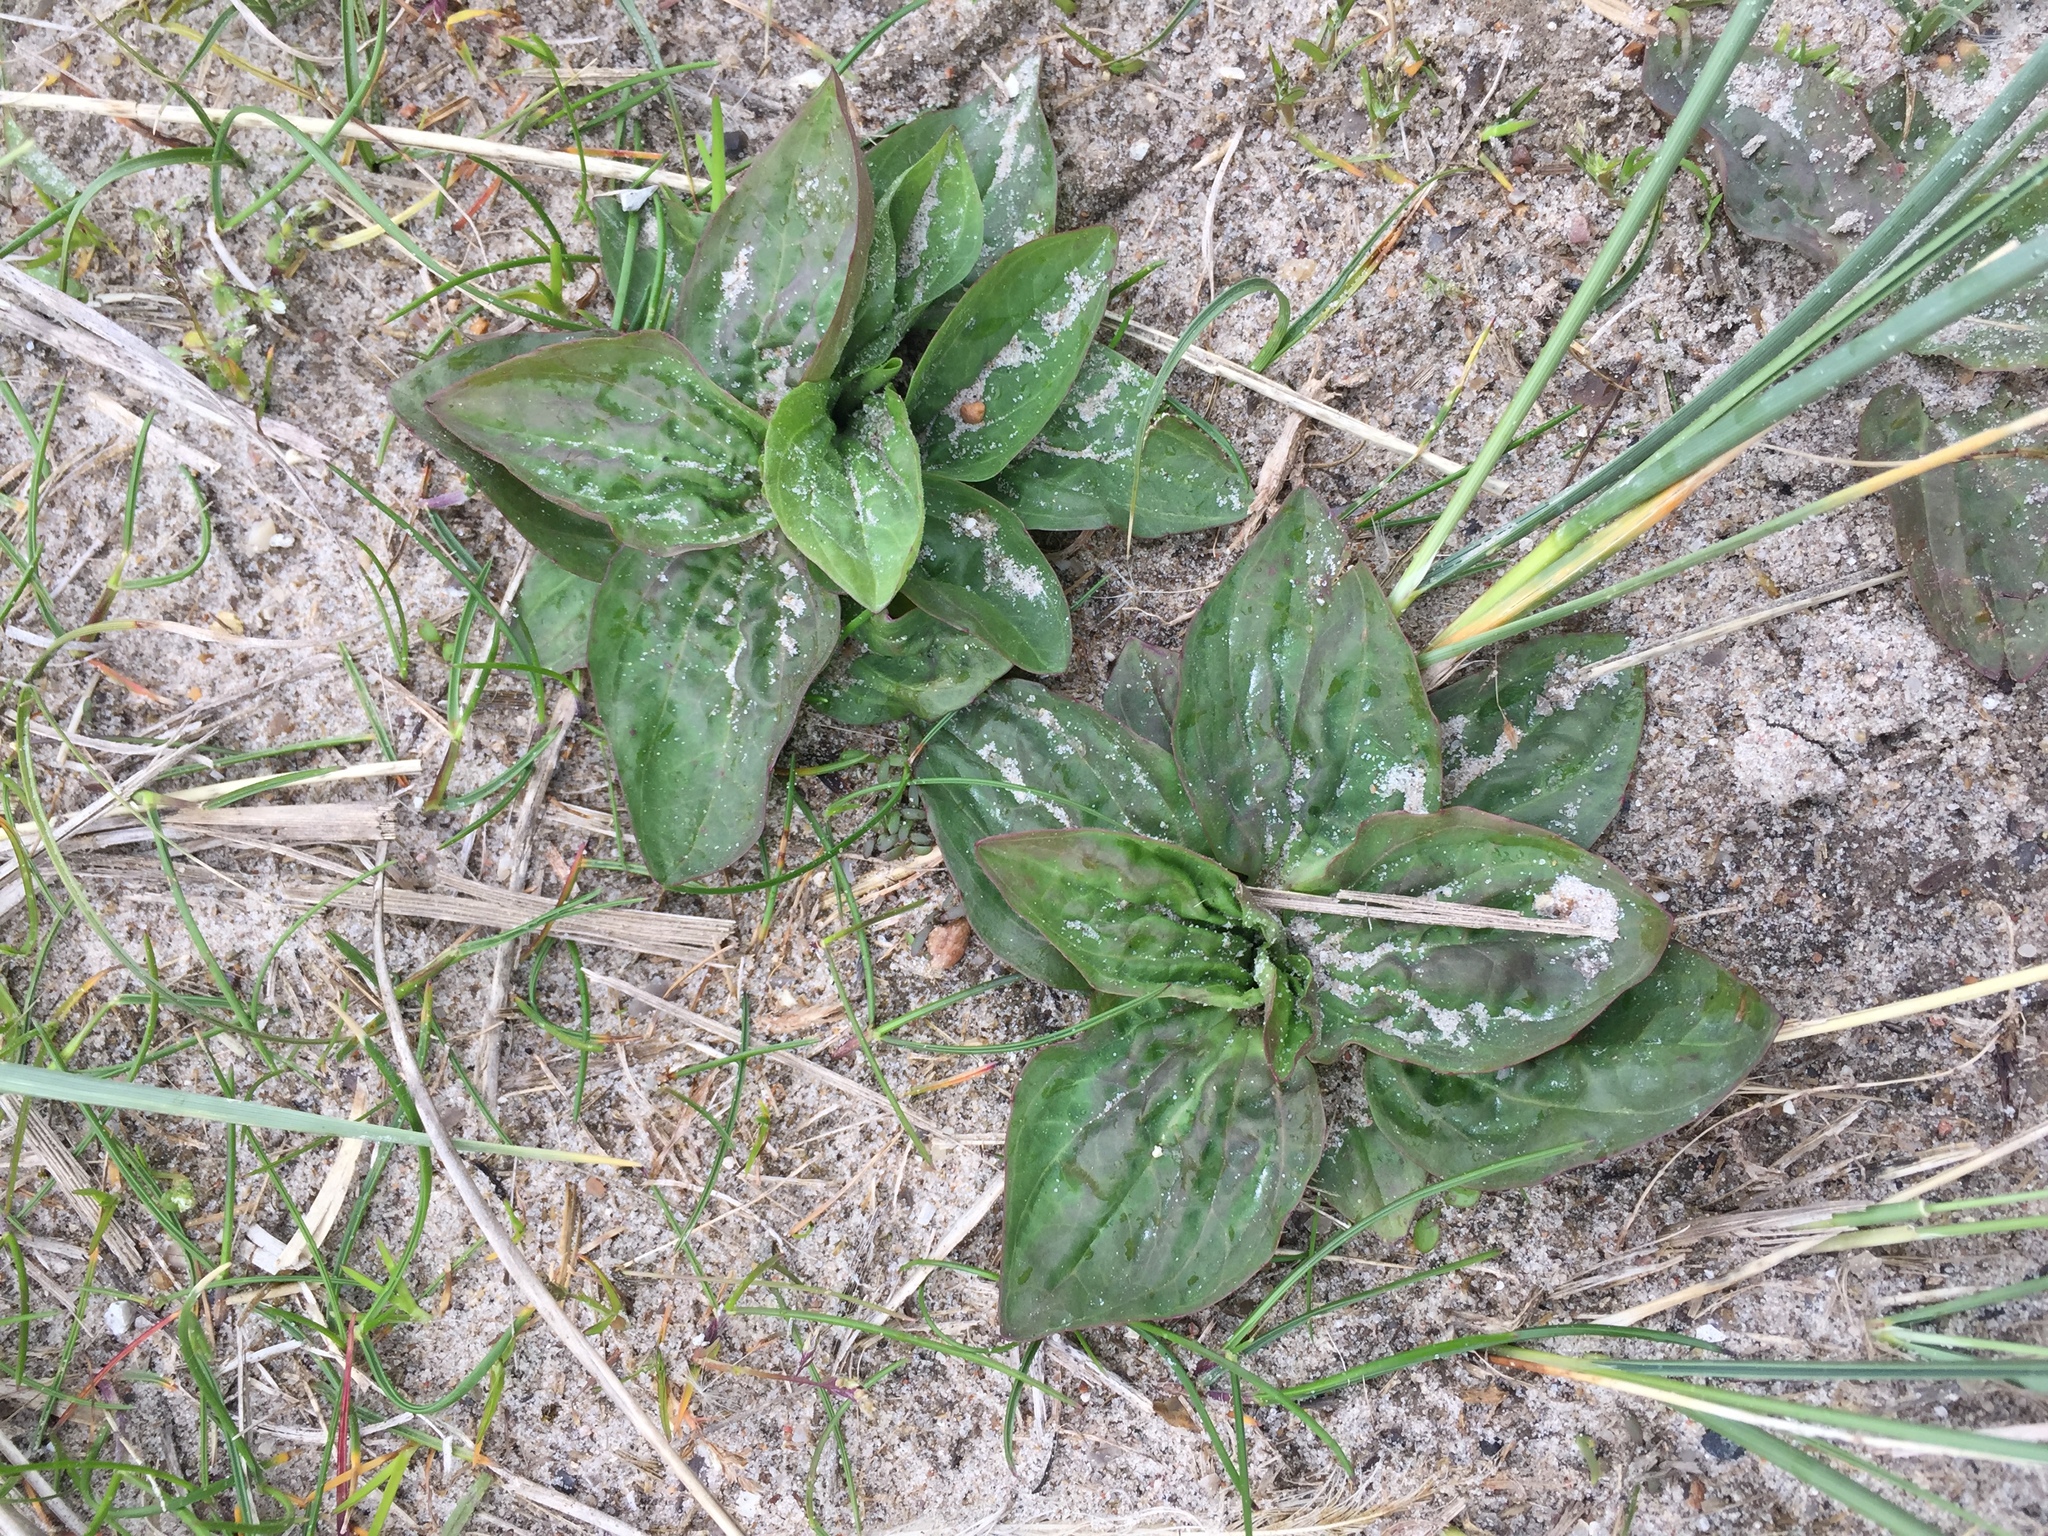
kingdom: Plantae
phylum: Tracheophyta
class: Magnoliopsida
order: Lamiales
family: Plantaginaceae
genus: Plantago
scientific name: Plantago major
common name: Common plantain
